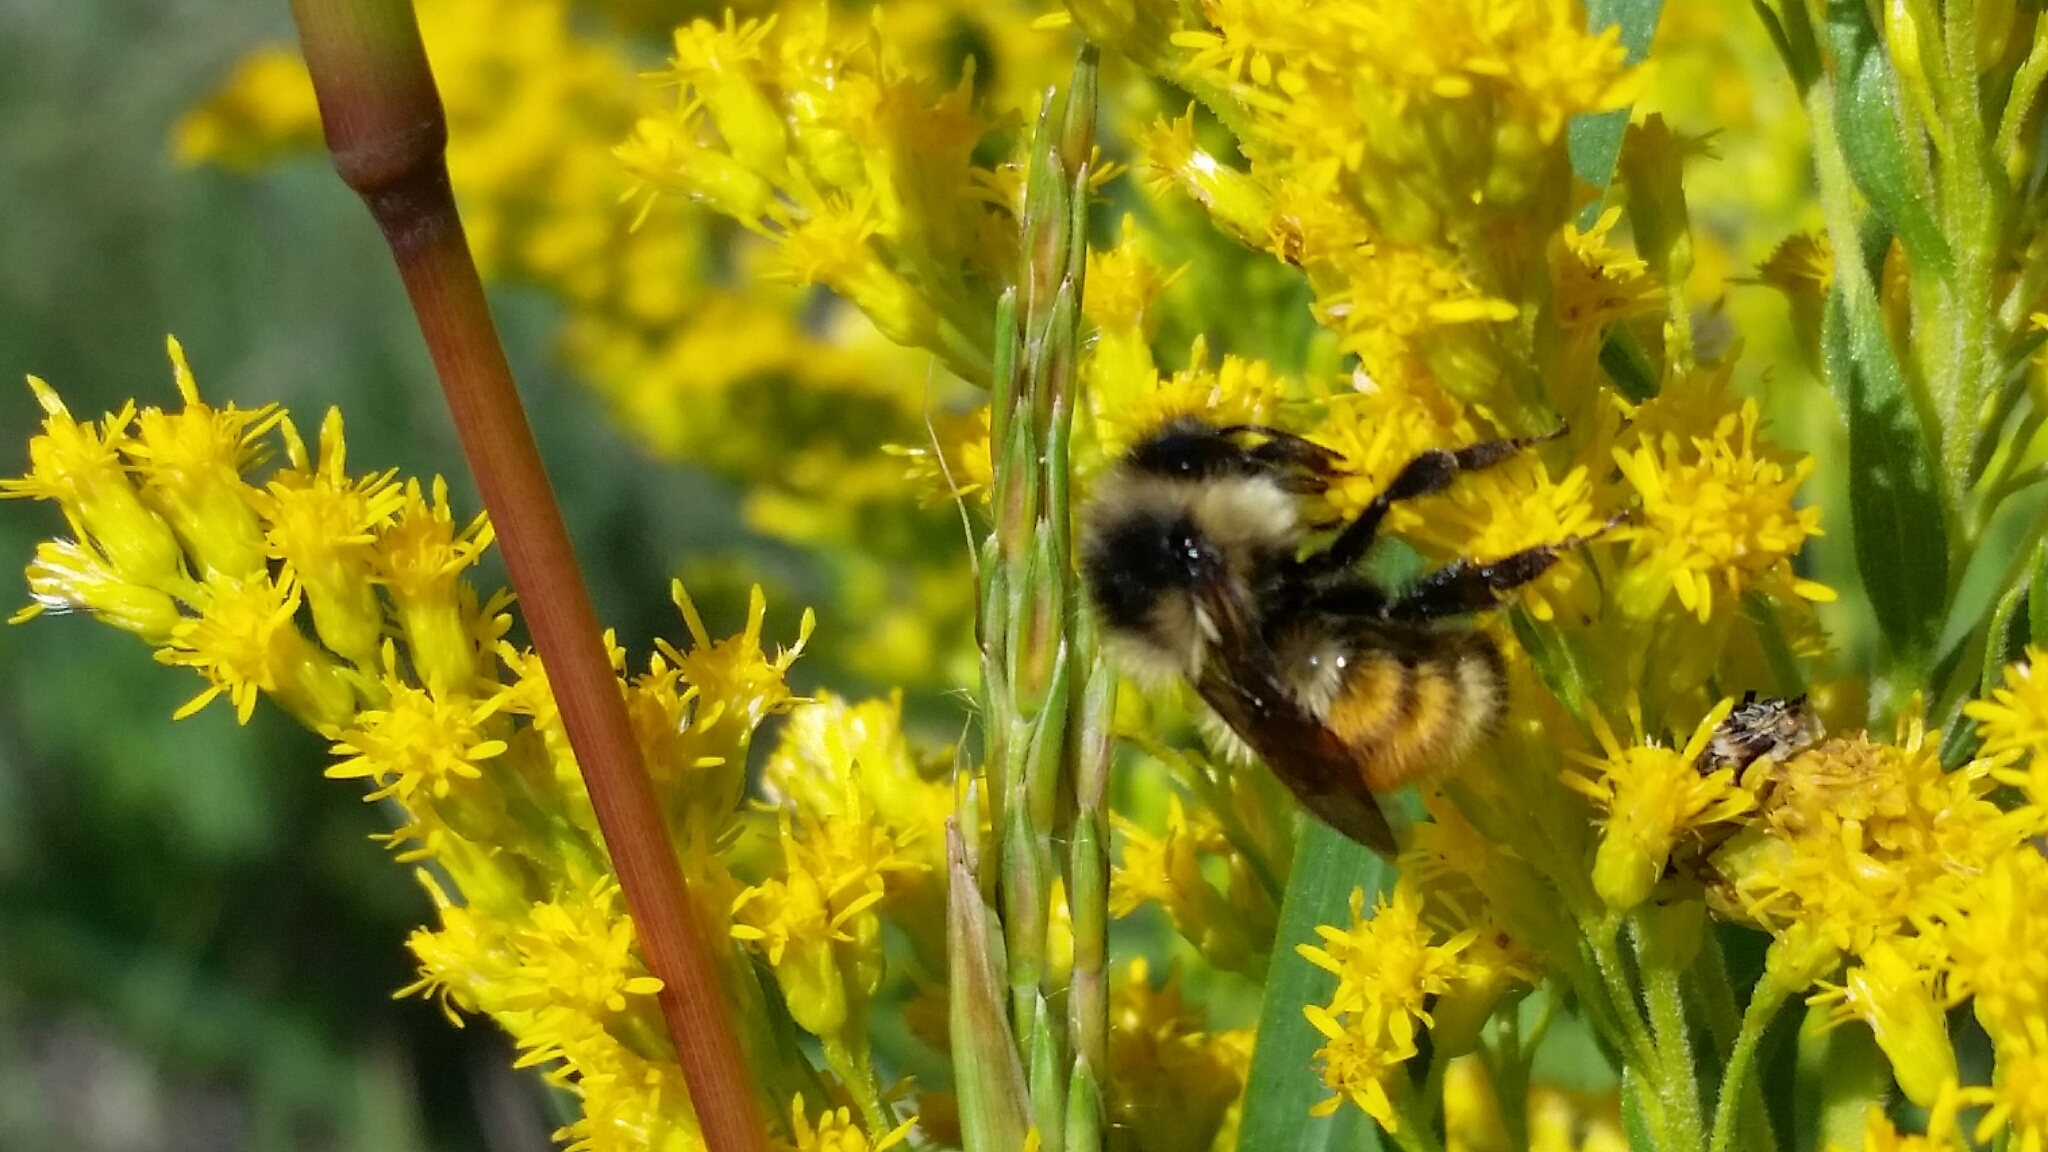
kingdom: Animalia
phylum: Arthropoda
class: Insecta
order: Hymenoptera
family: Apidae
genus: Bombus
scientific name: Bombus ternarius
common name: Tri-colored bumble bee
